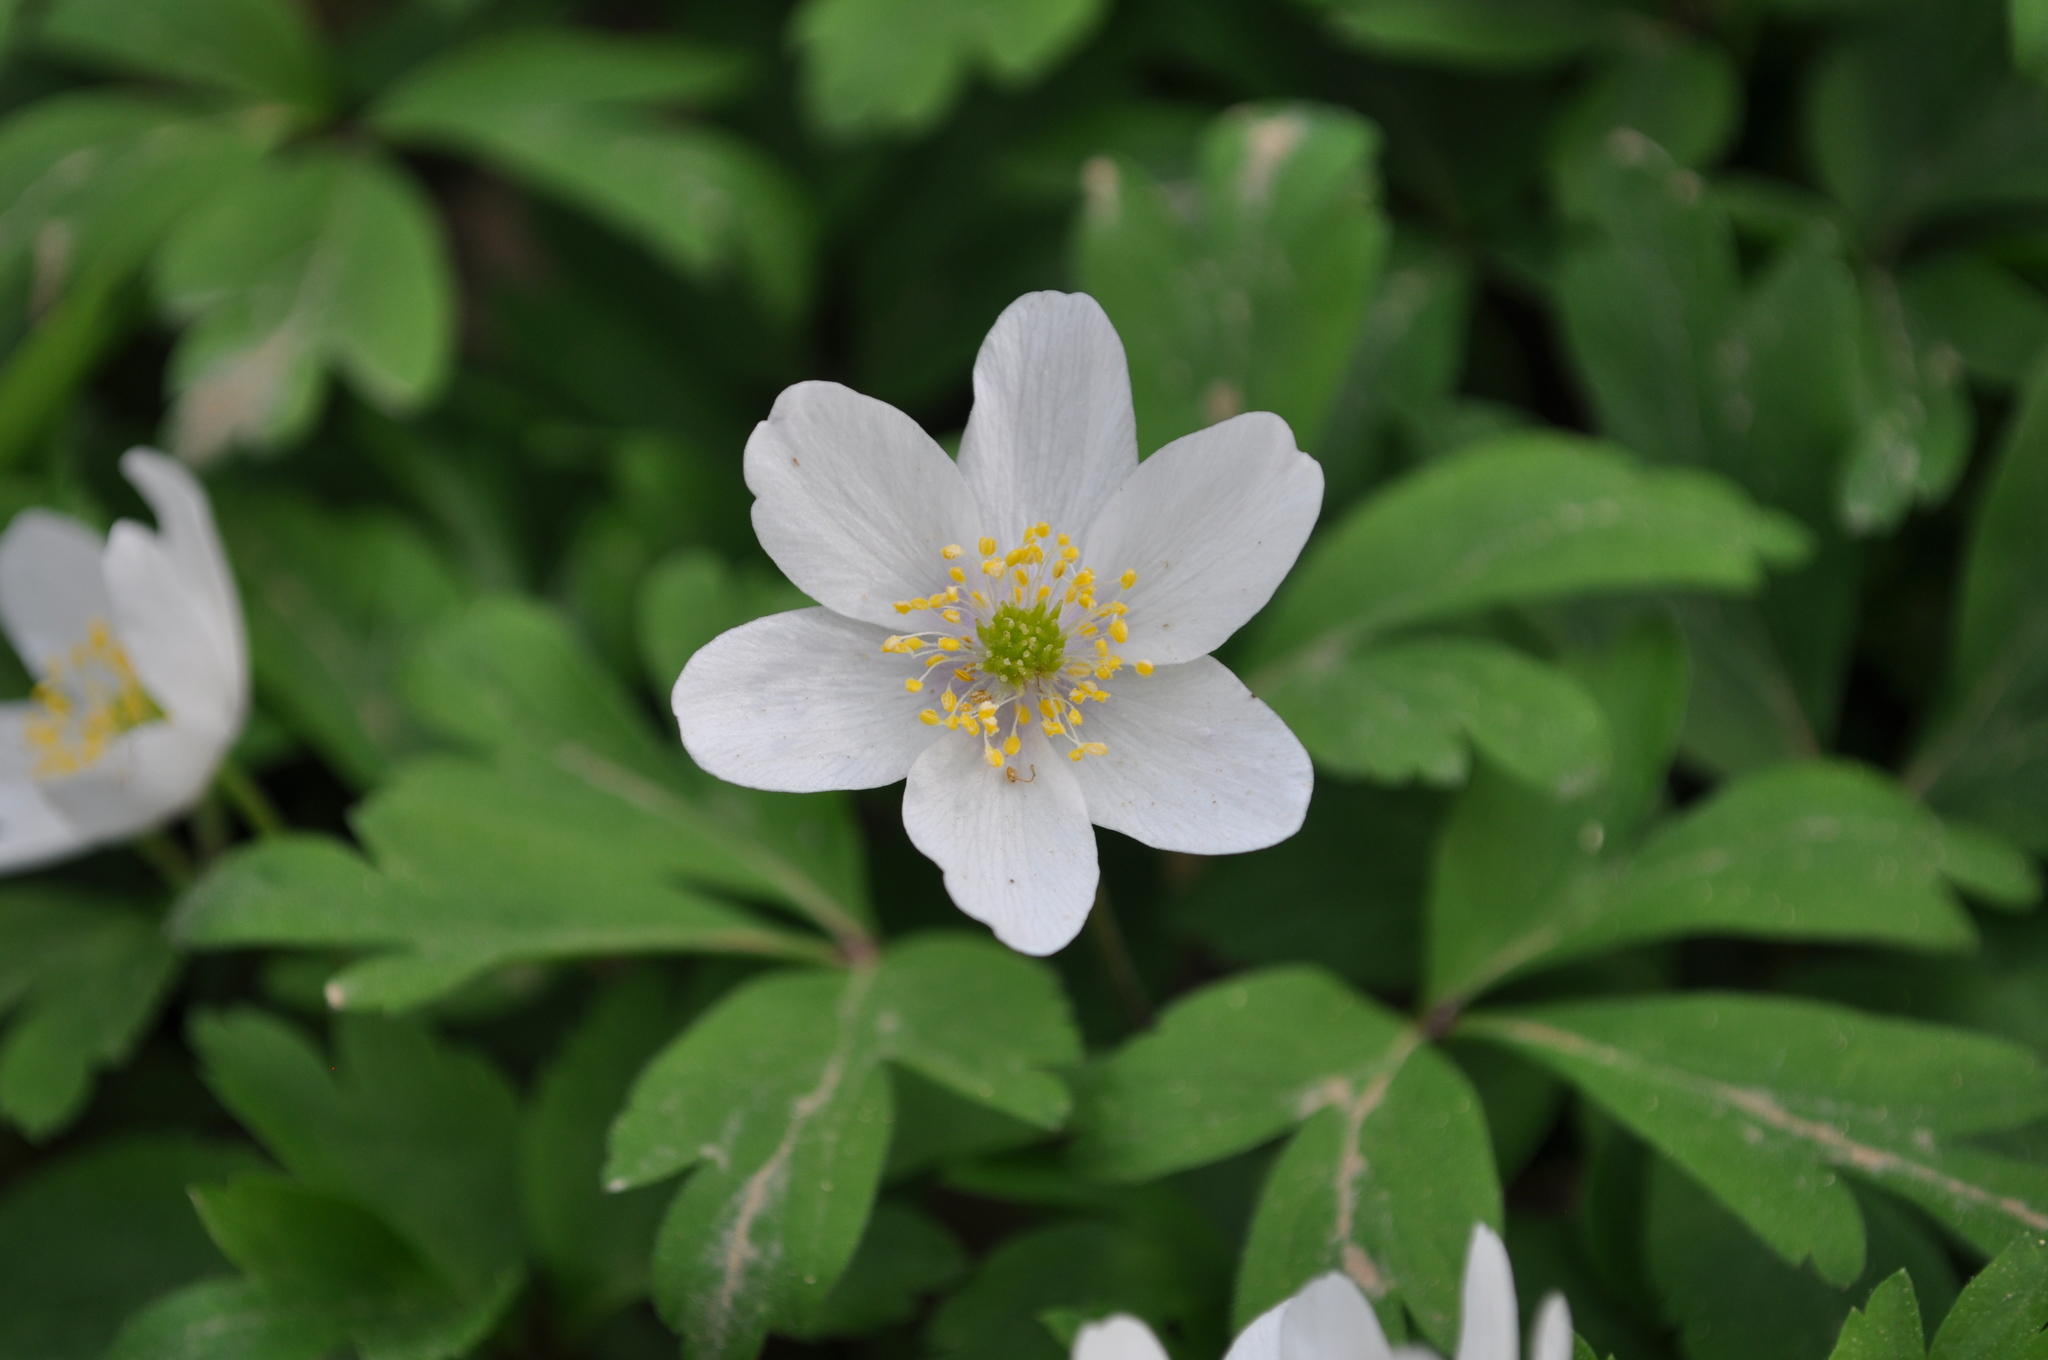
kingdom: Plantae
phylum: Tracheophyta
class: Magnoliopsida
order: Ranunculales
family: Ranunculaceae
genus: Anemone
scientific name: Anemone nemorosa
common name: Wood anemone
